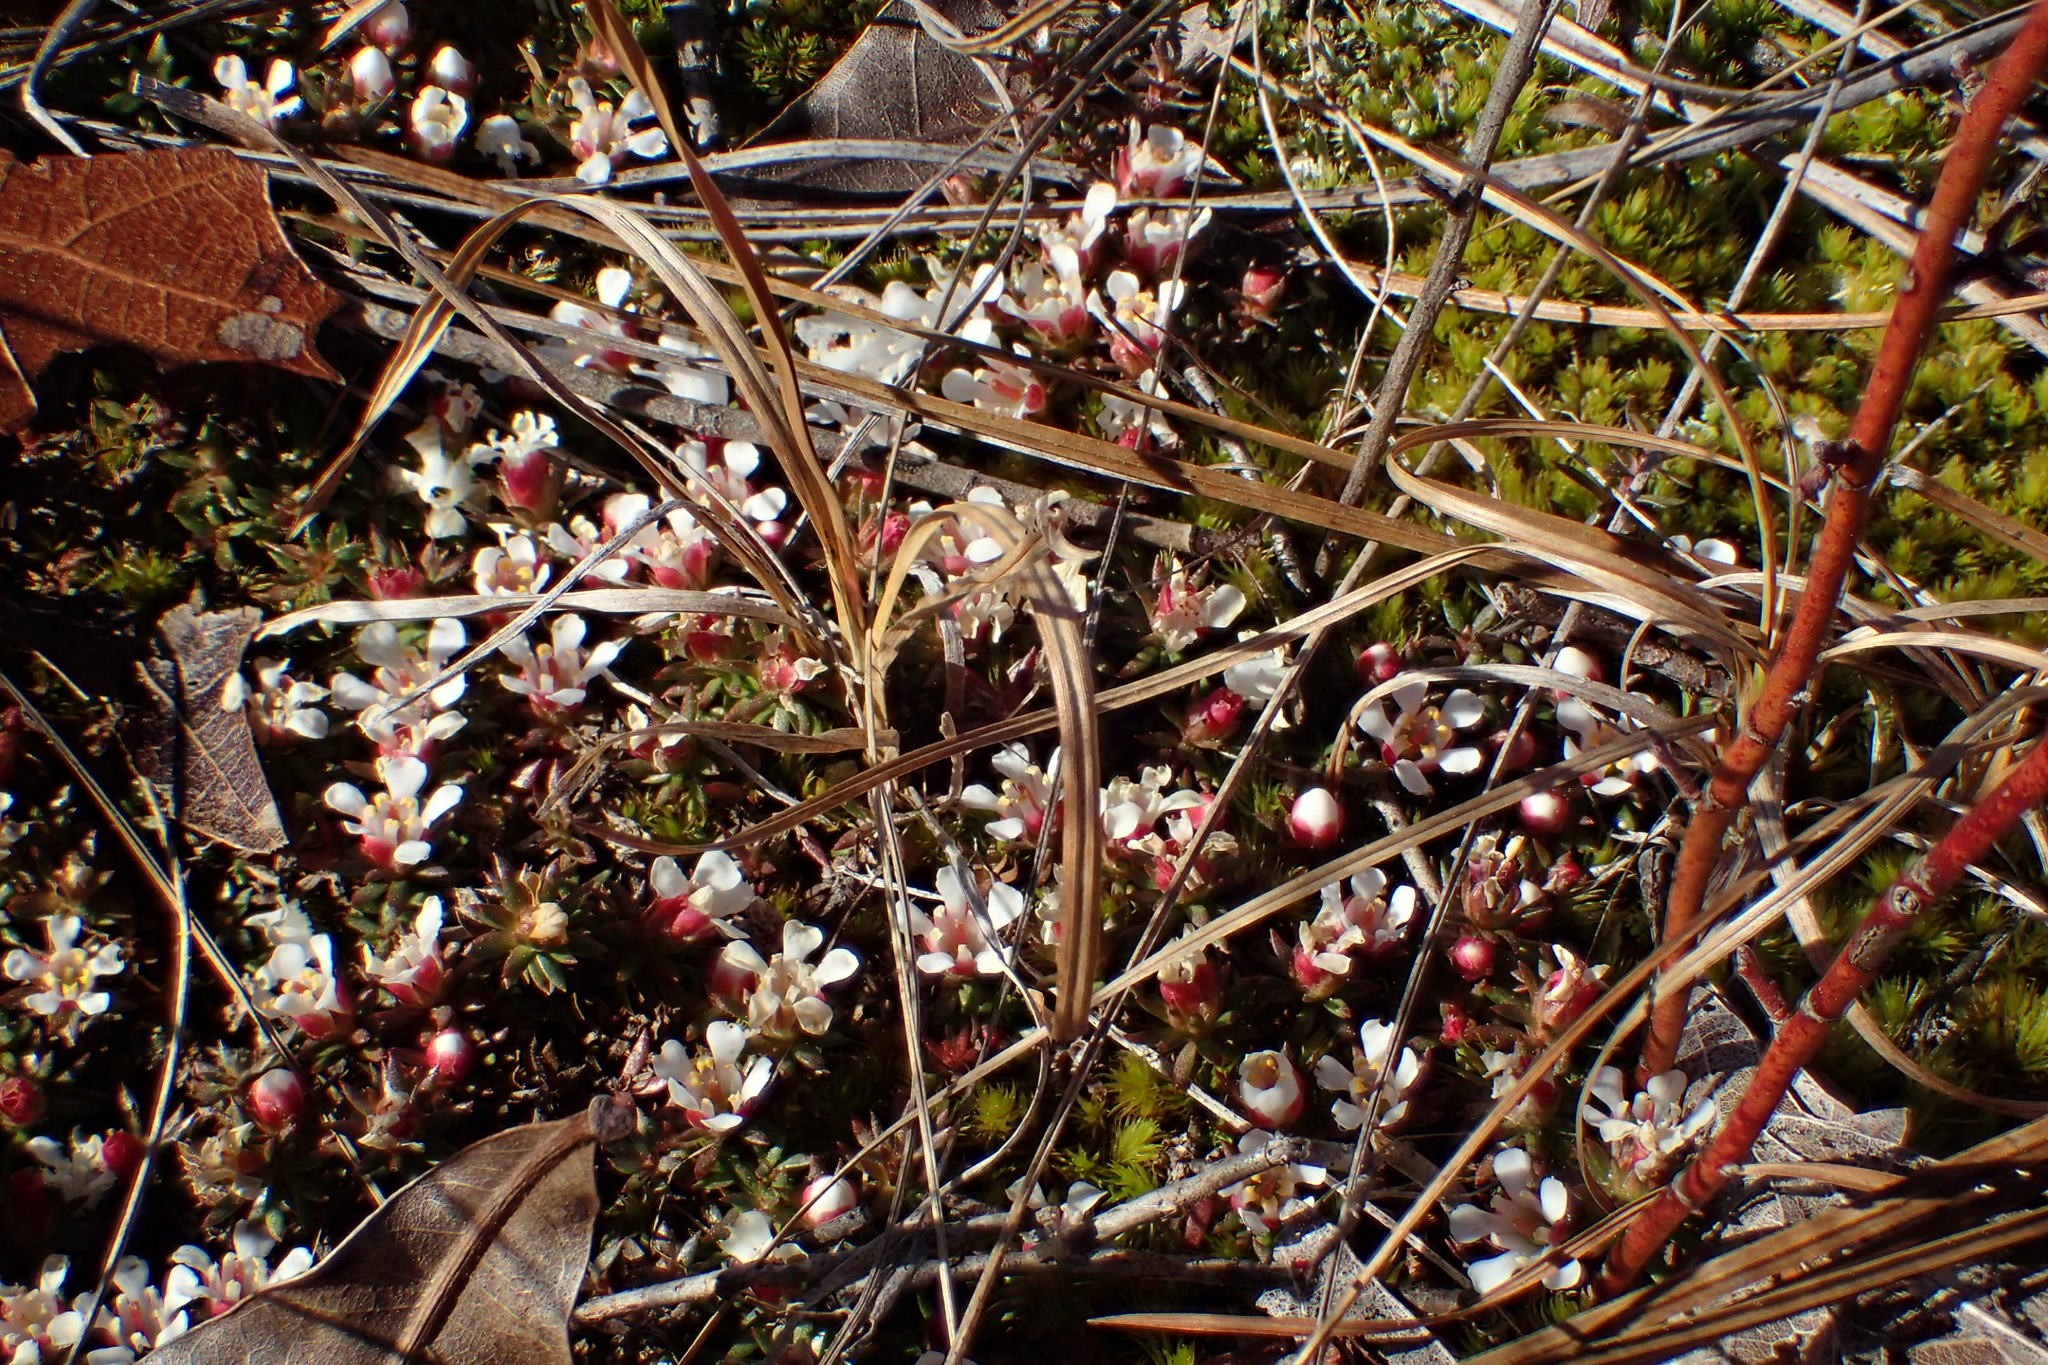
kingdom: Plantae
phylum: Tracheophyta
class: Magnoliopsida
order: Ericales
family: Diapensiaceae
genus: Pyxidanthera
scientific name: Pyxidanthera barbulata
